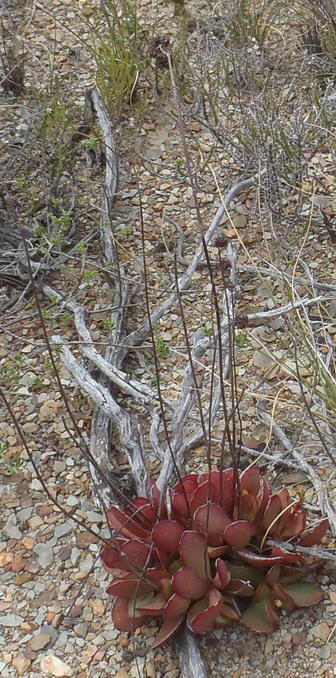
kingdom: Plantae
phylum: Tracheophyta
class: Magnoliopsida
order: Saxifragales
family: Crassulaceae
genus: Crassula
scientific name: Crassula atropurpurea
